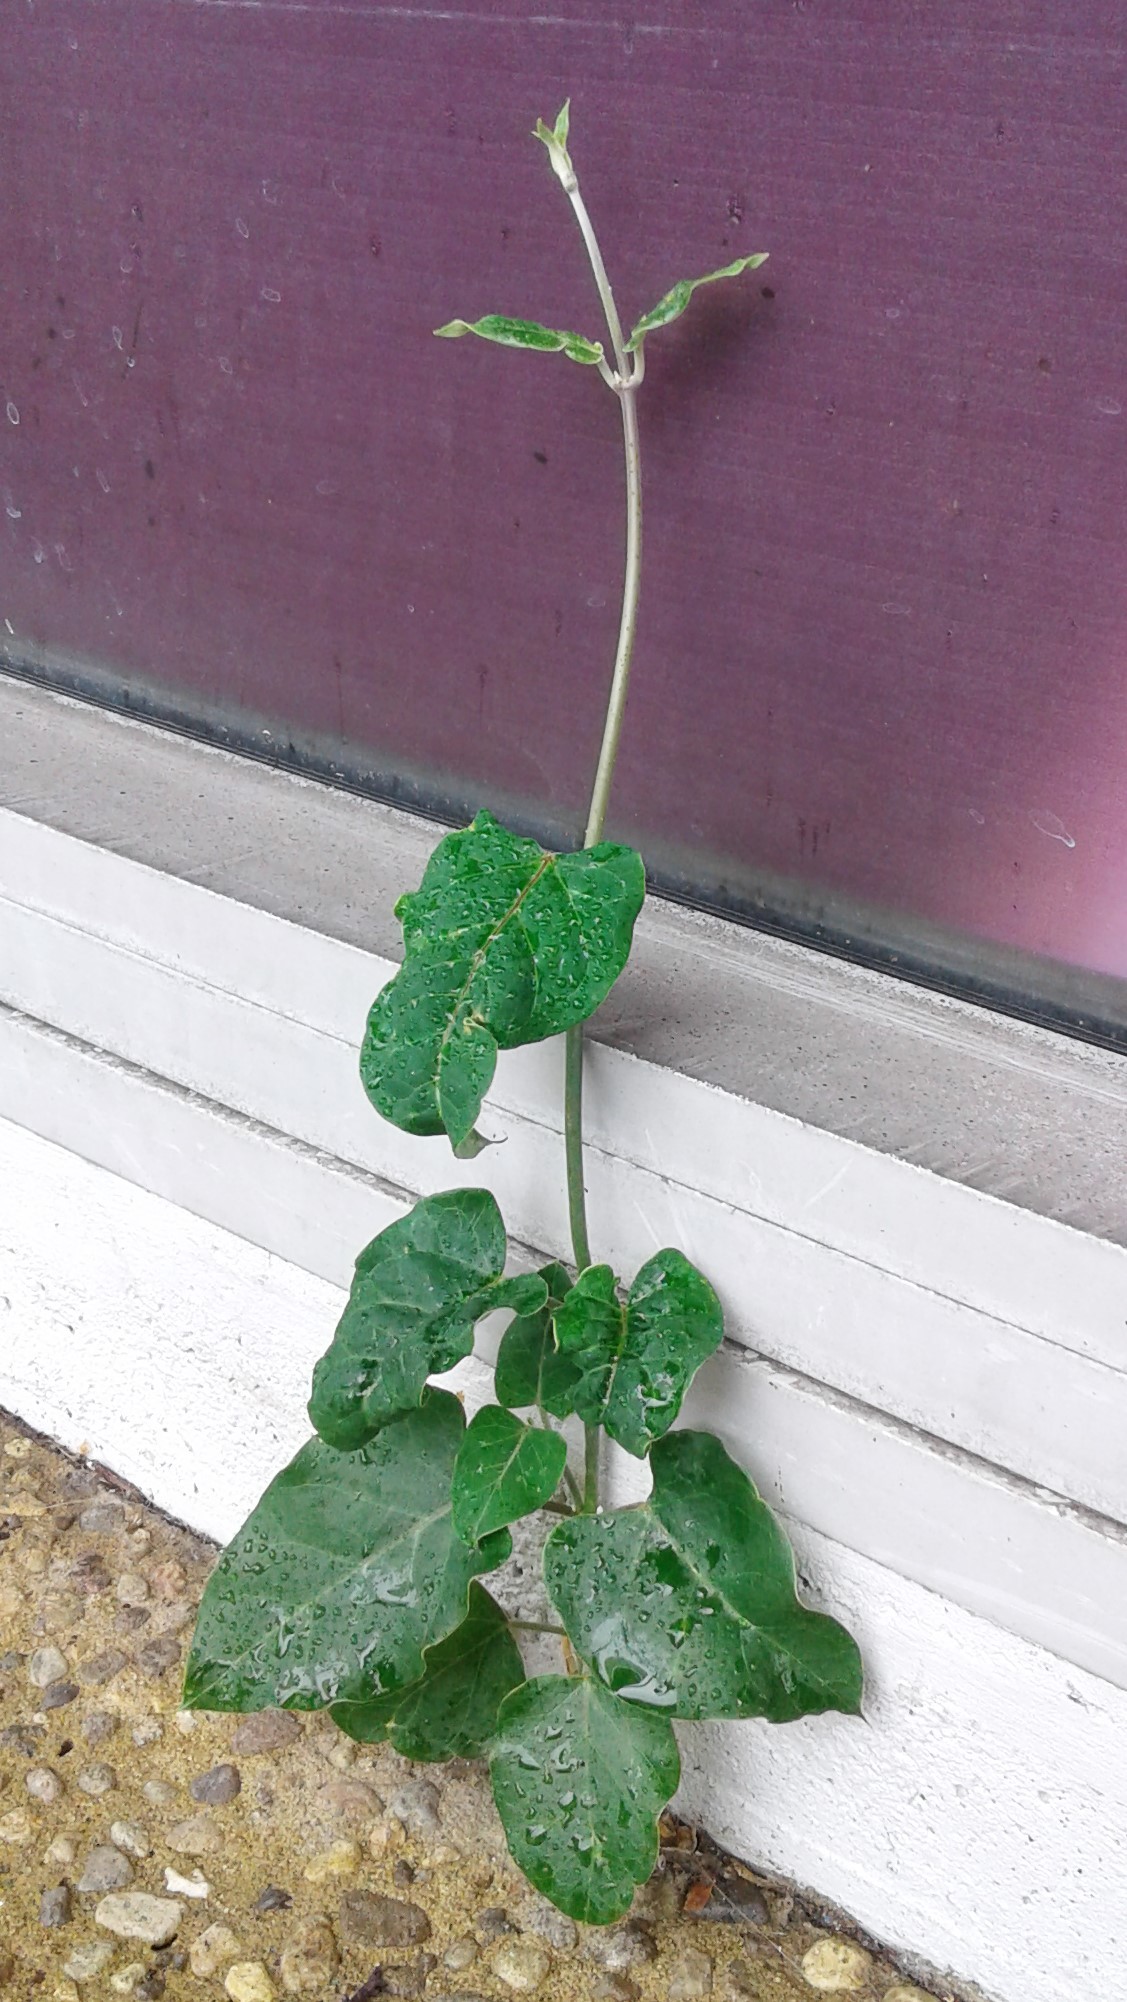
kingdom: Plantae
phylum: Tracheophyta
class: Magnoliopsida
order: Gentianales
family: Apocynaceae
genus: Araujia
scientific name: Araujia sericifera
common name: White bladderflower
